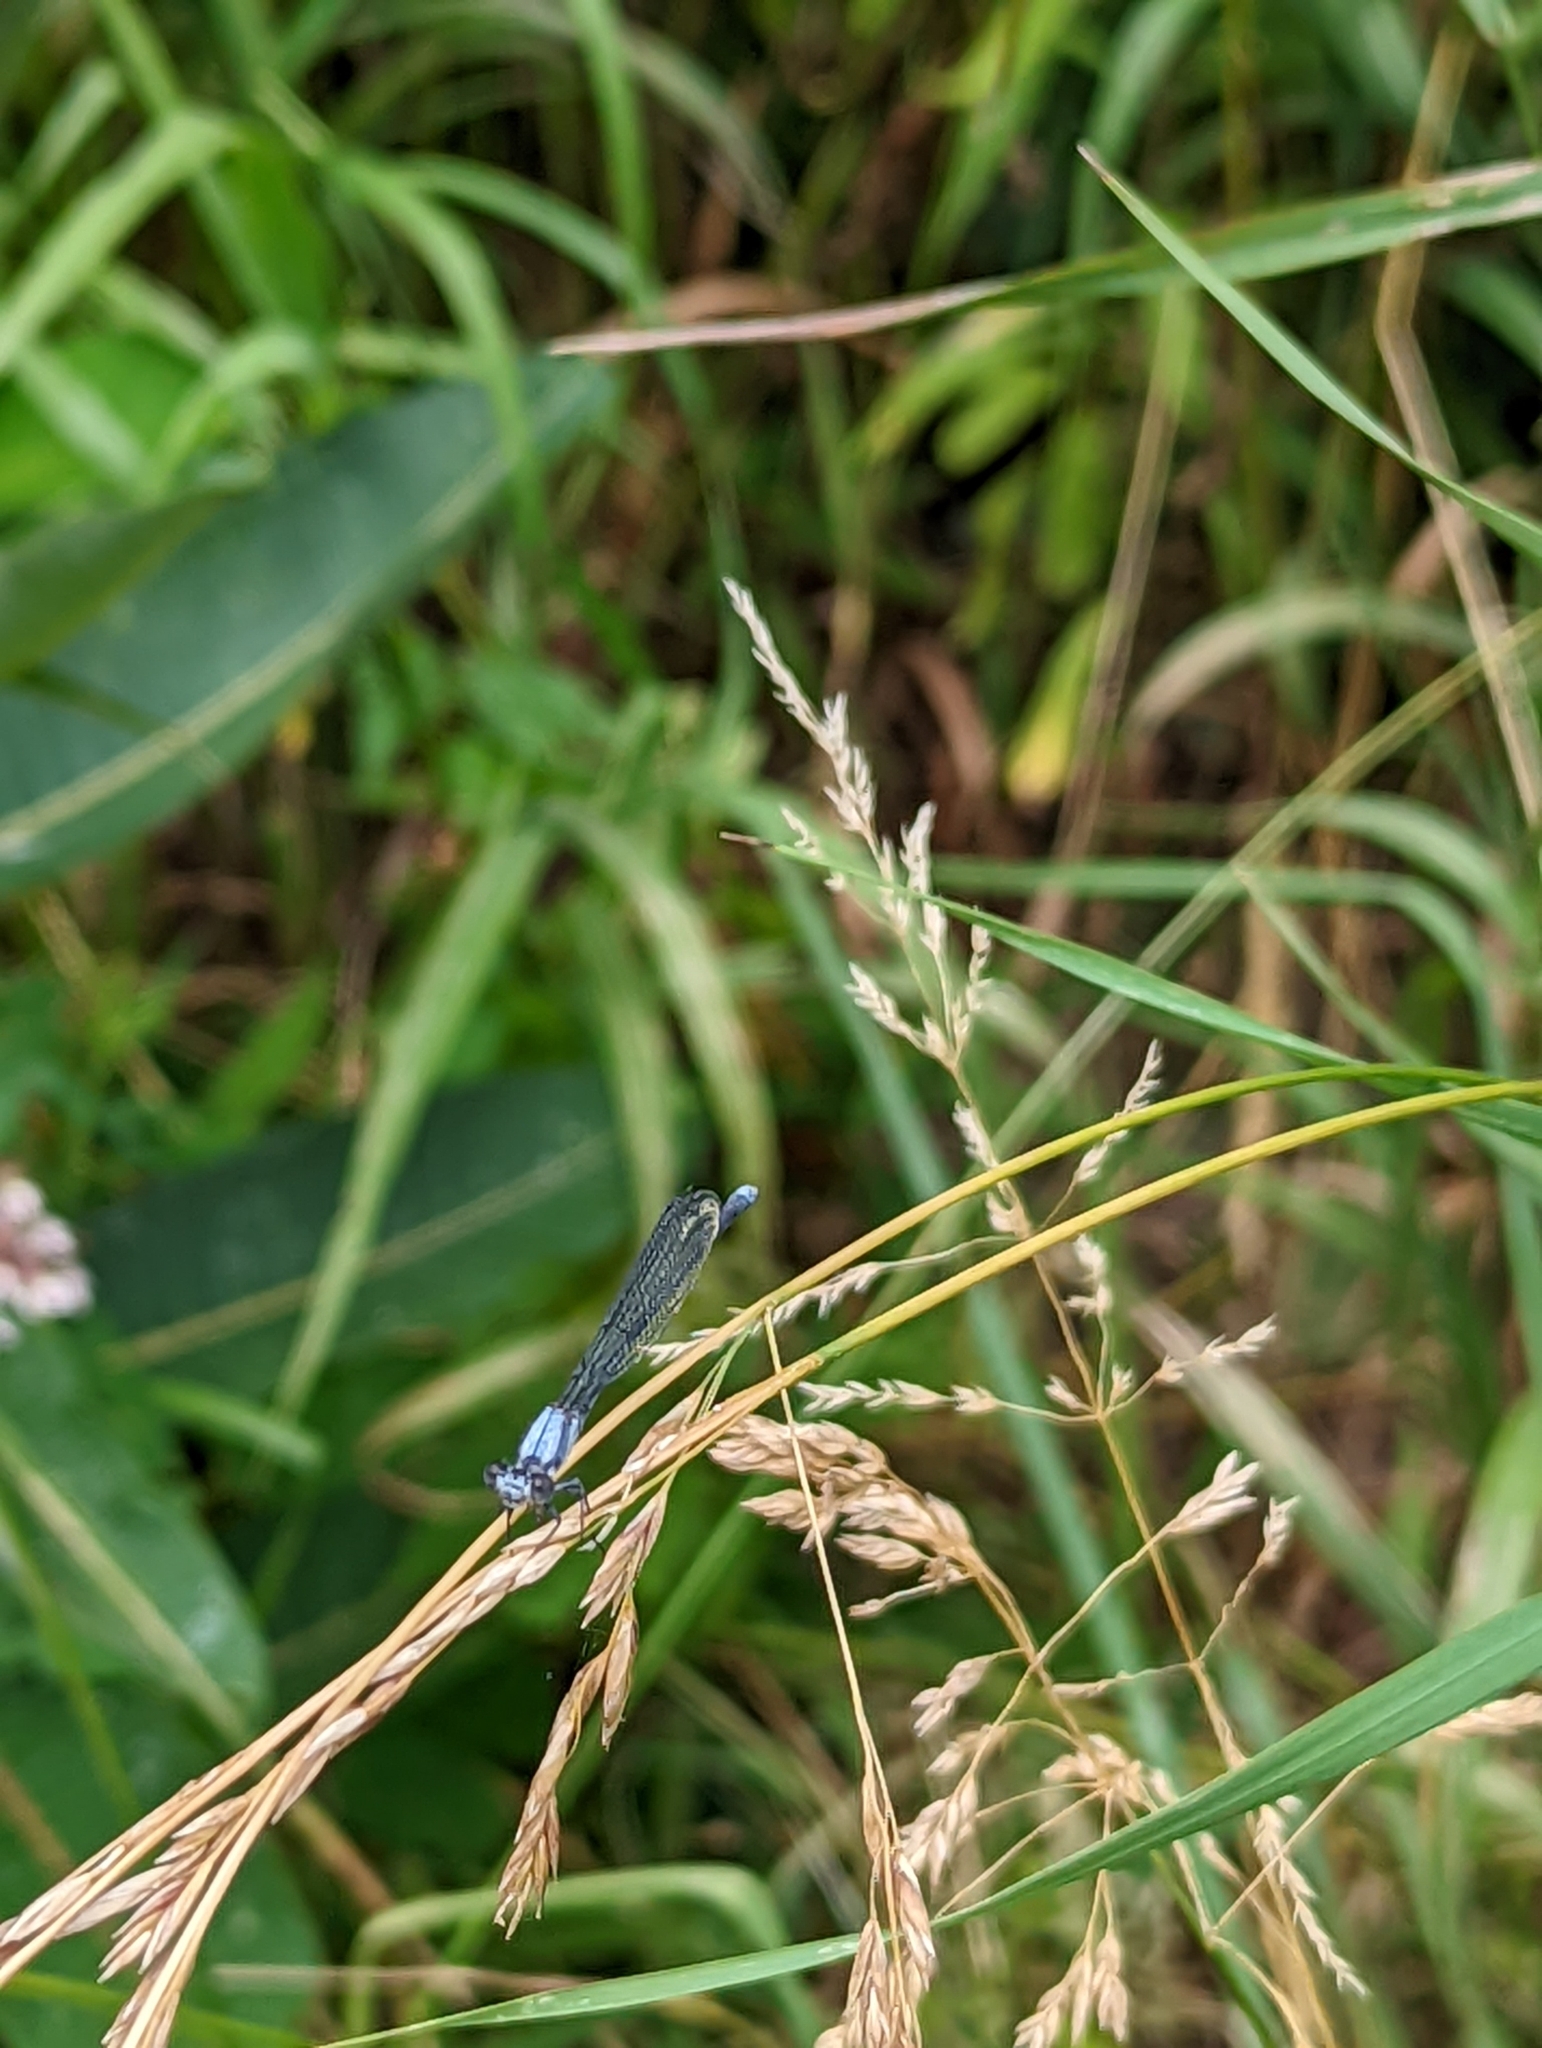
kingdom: Animalia
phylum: Arthropoda
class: Insecta
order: Odonata
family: Coenagrionidae
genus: Argia
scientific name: Argia apicalis
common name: Blue-fronted dancer
